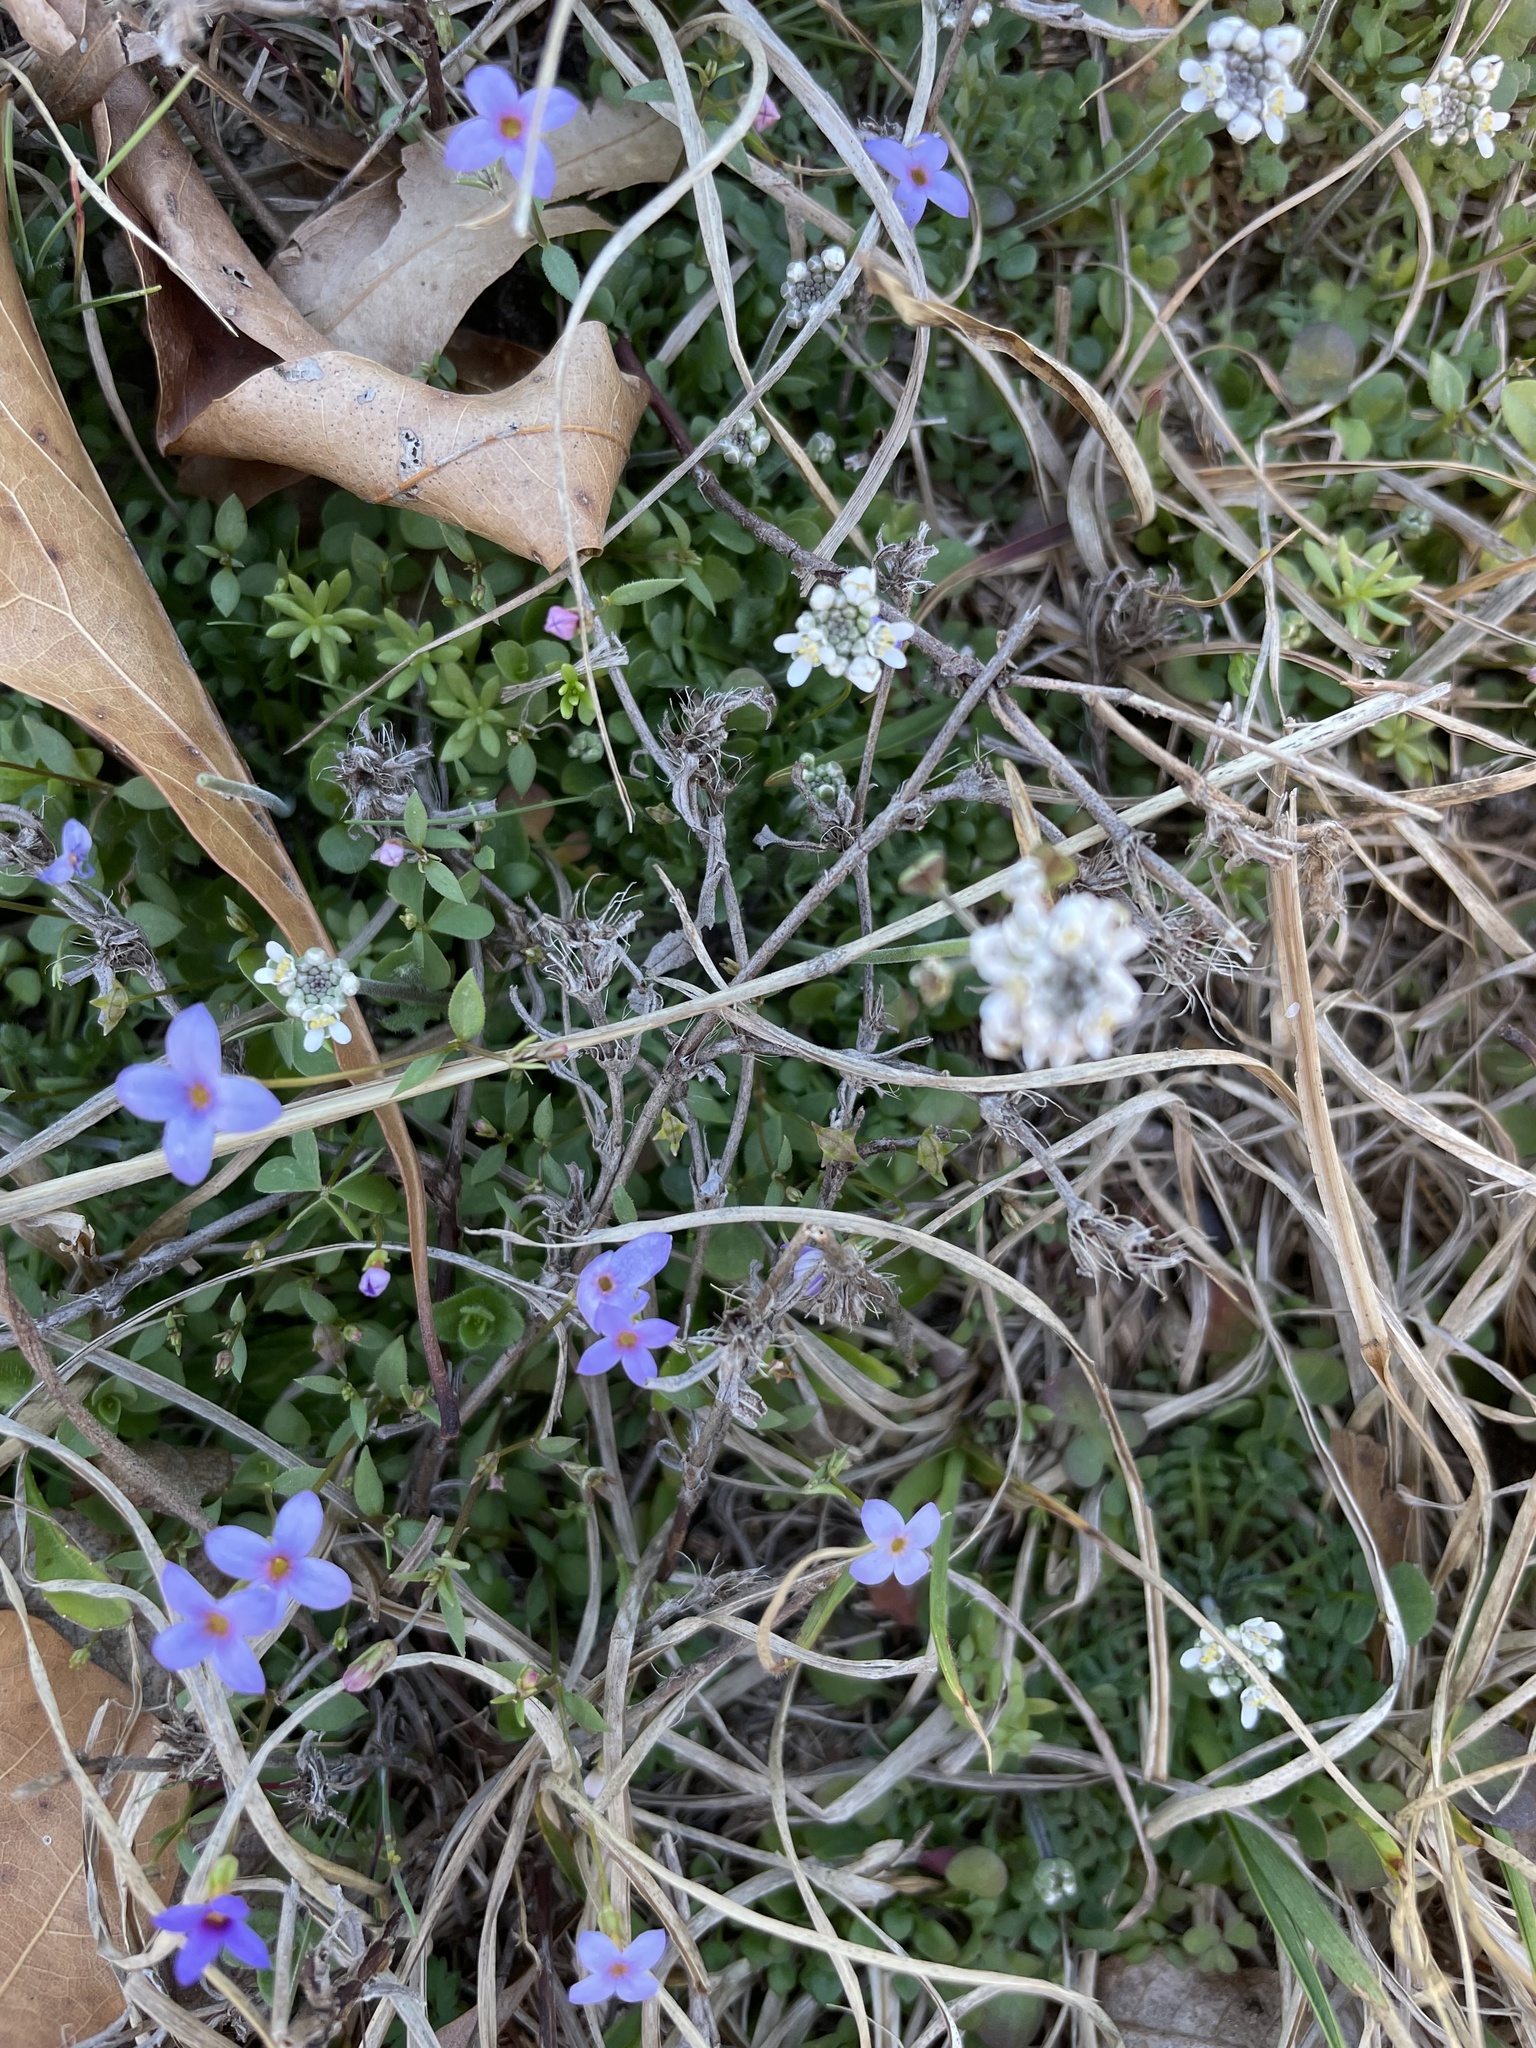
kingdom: Plantae
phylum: Tracheophyta
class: Magnoliopsida
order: Gentianales
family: Rubiaceae
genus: Houstonia
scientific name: Houstonia pusilla
